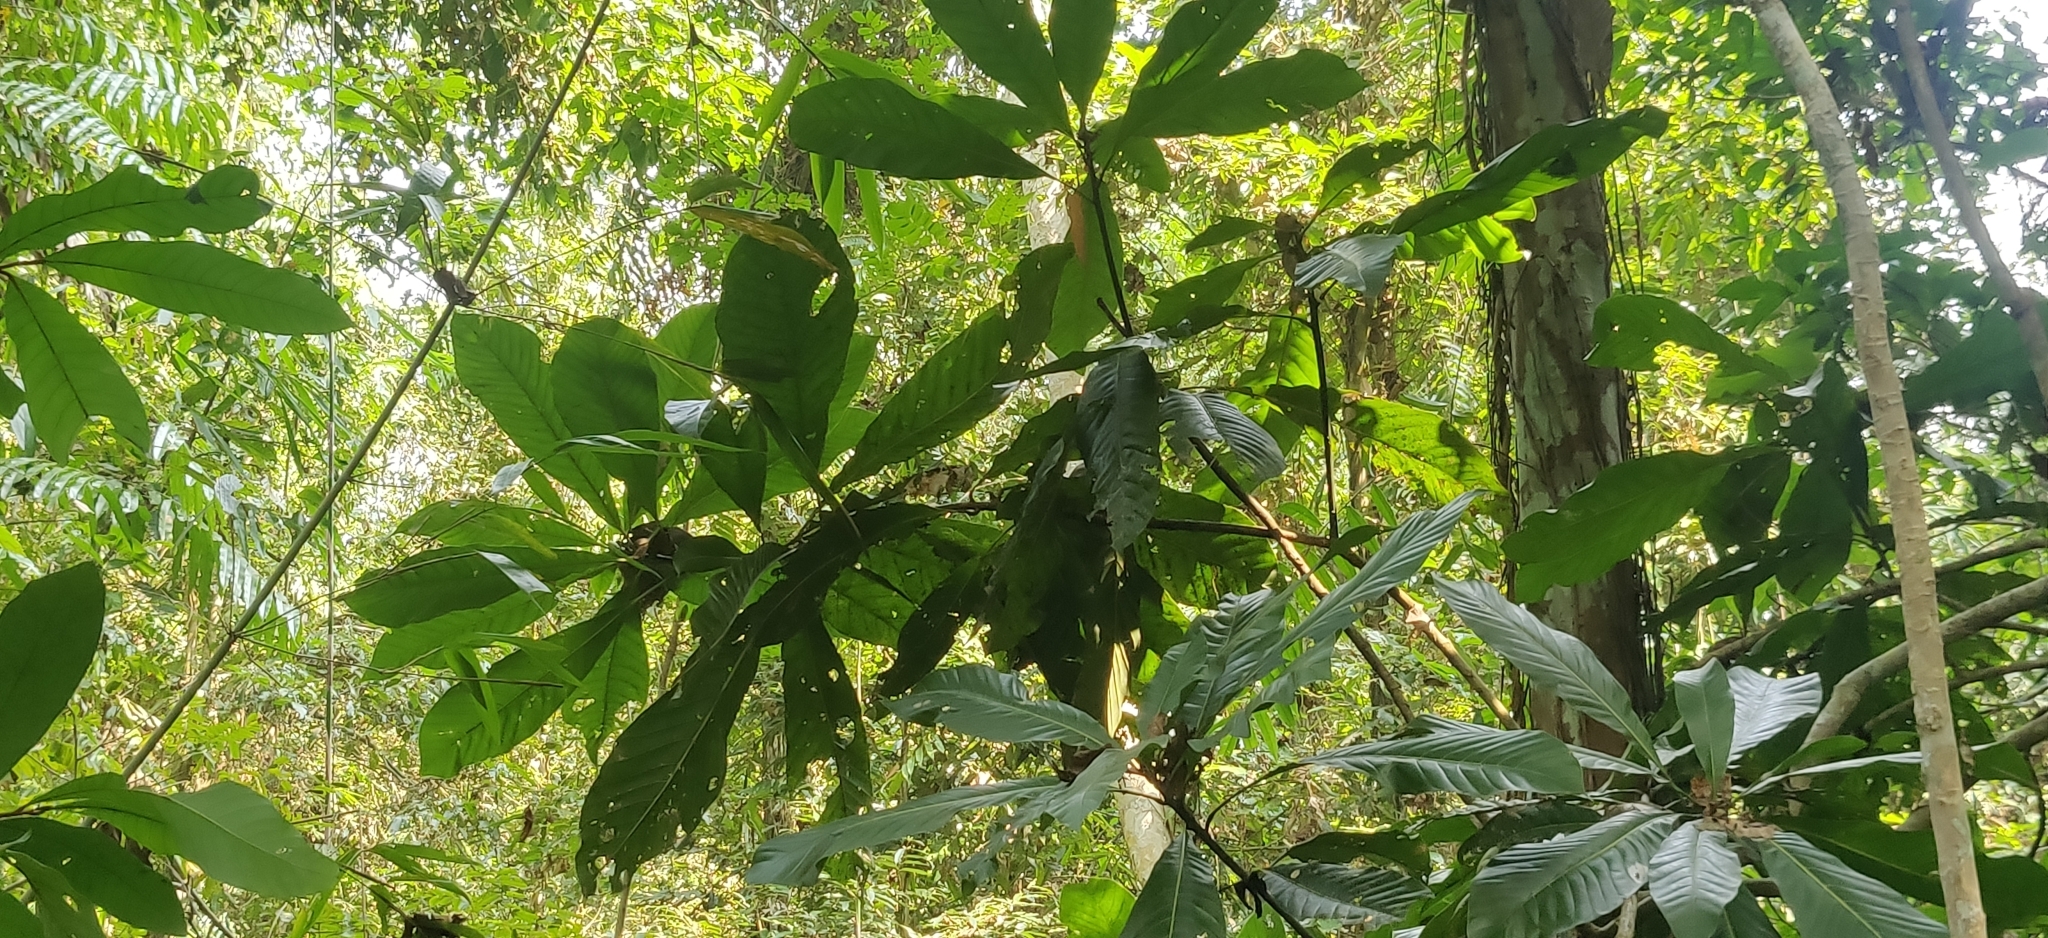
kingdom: Plantae
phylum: Tracheophyta
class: Magnoliopsida
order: Magnoliales
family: Magnoliaceae
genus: Magnolia
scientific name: Magnolia hodgsonii
